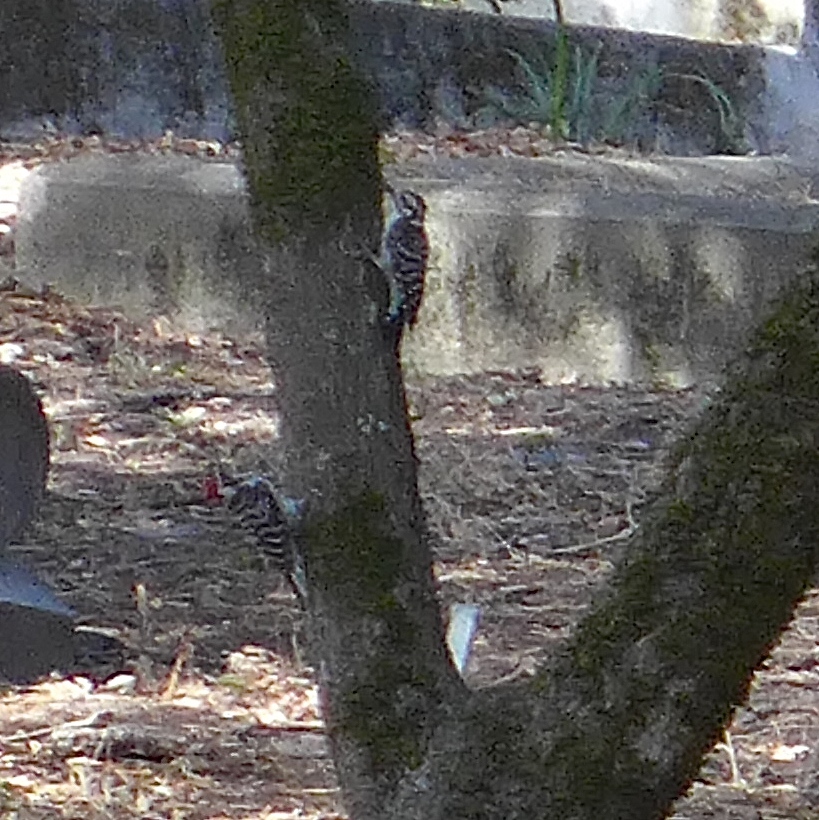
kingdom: Animalia
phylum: Chordata
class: Aves
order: Piciformes
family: Picidae
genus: Dryobates
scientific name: Dryobates nuttallii
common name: Nuttall's woodpecker
